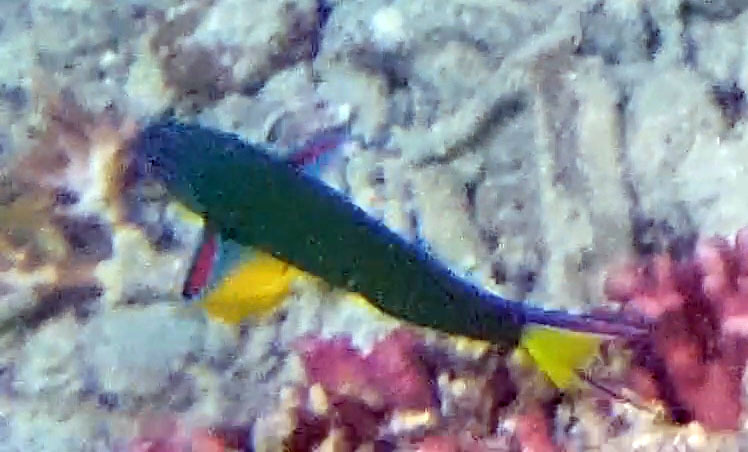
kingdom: Animalia
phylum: Chordata
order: Perciformes
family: Labridae
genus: Thalassoma
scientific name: Thalassoma lunare
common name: Blue wrasse
